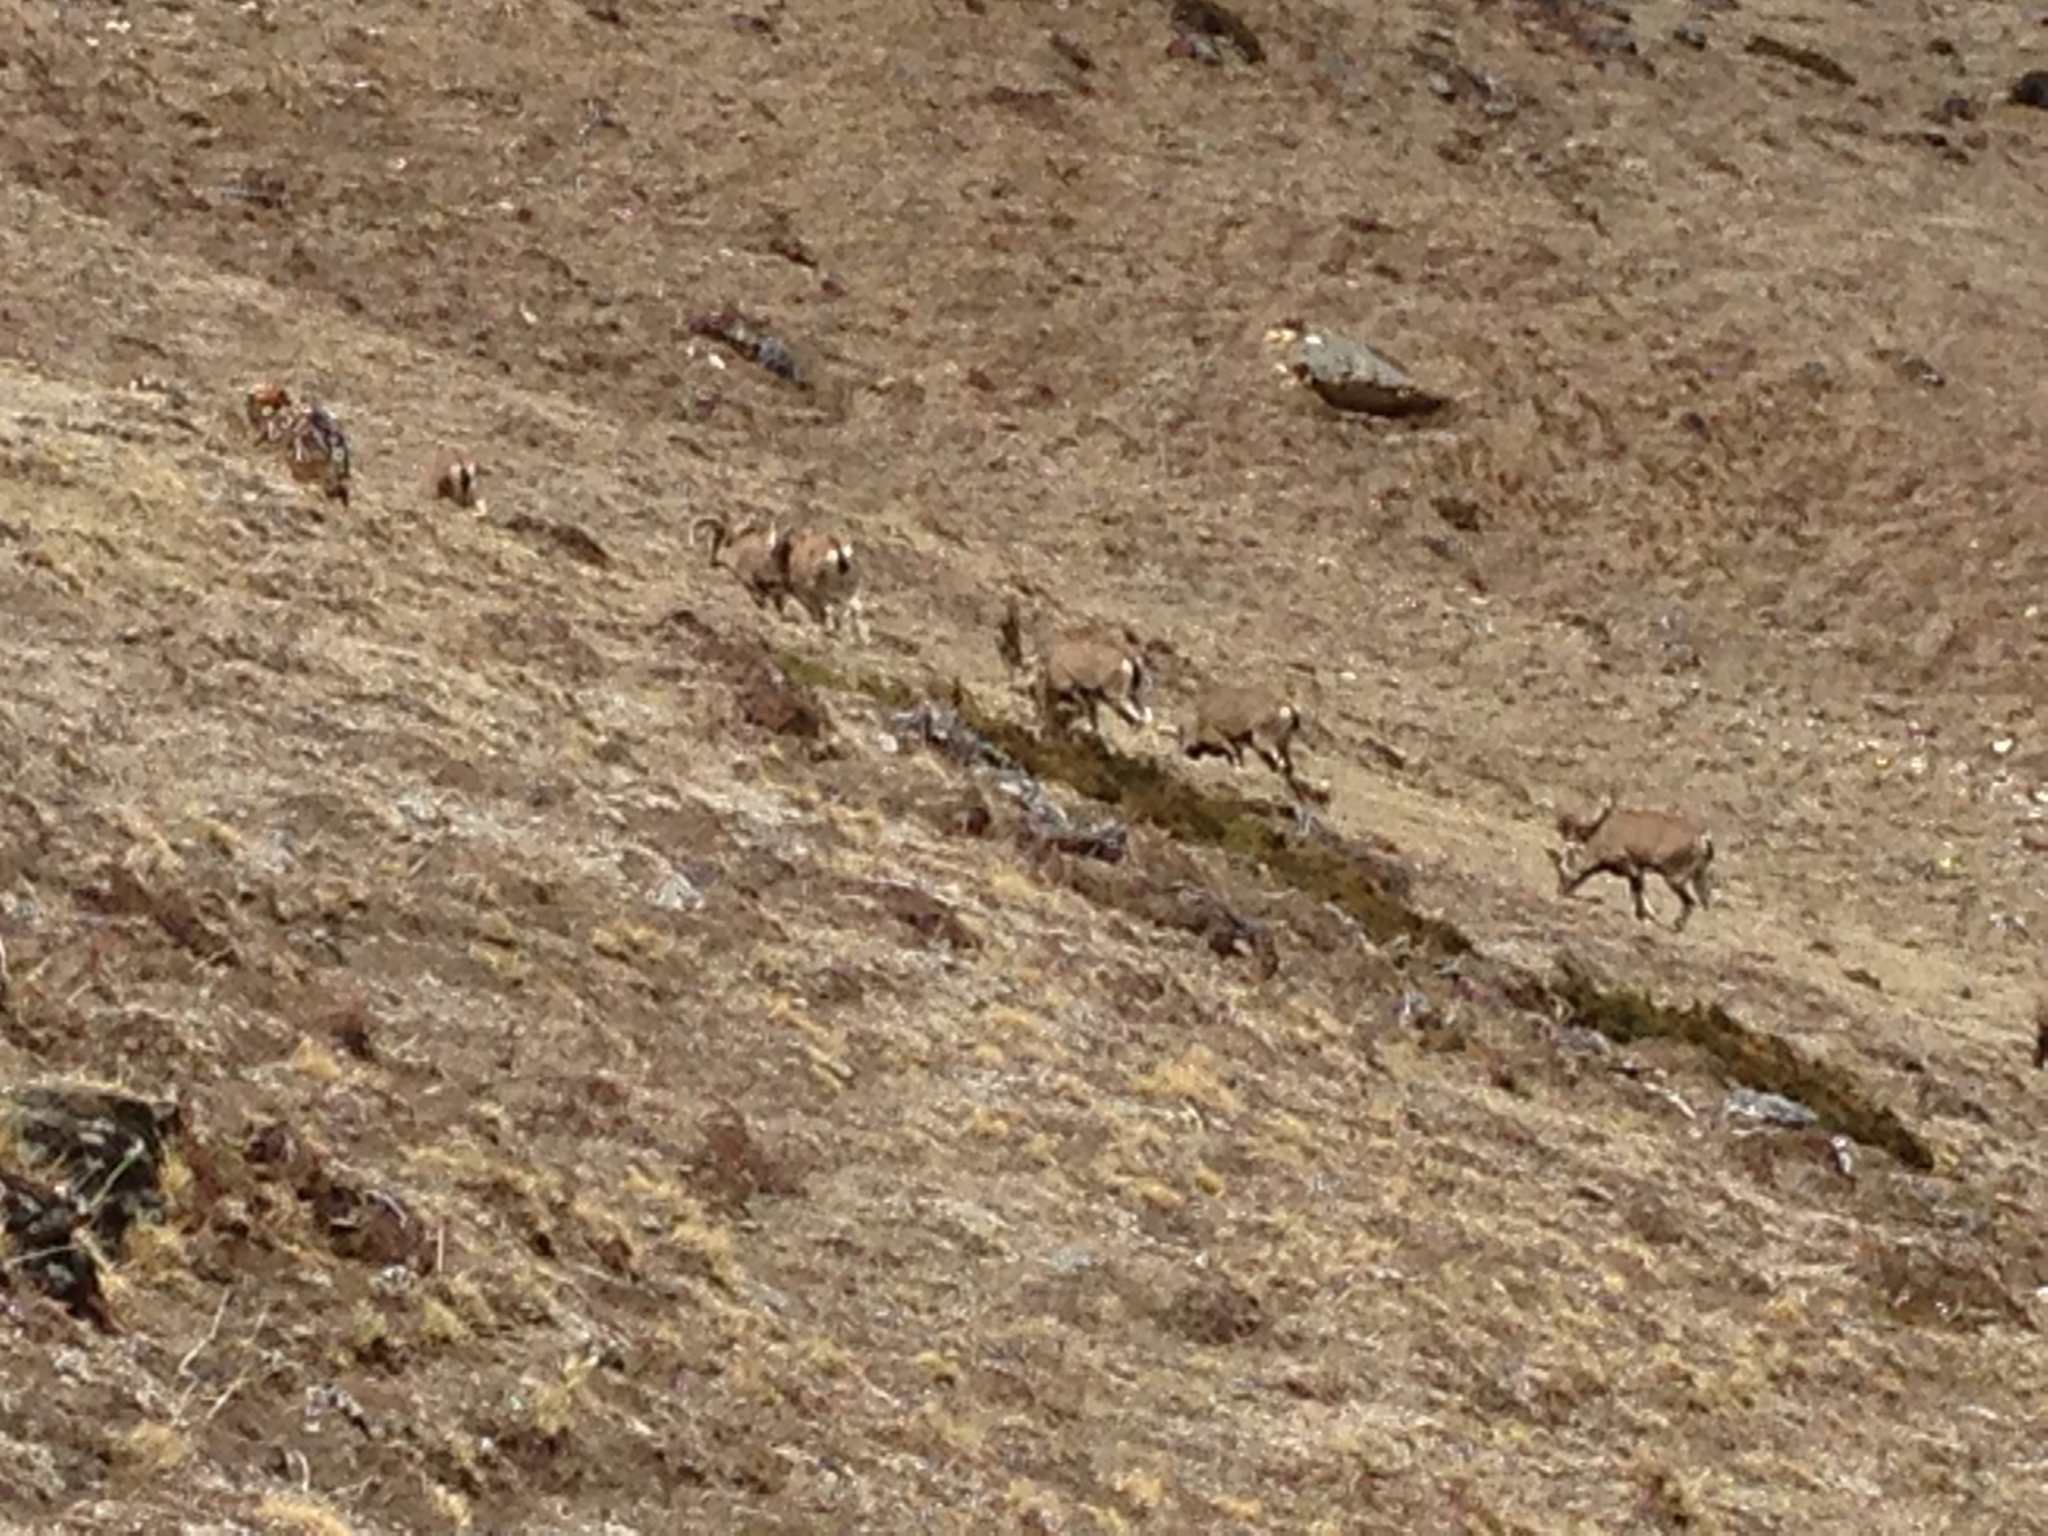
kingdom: Animalia
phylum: Chordata
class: Mammalia
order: Artiodactyla
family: Bovidae
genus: Pseudois
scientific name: Pseudois nayaur
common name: Bharal
